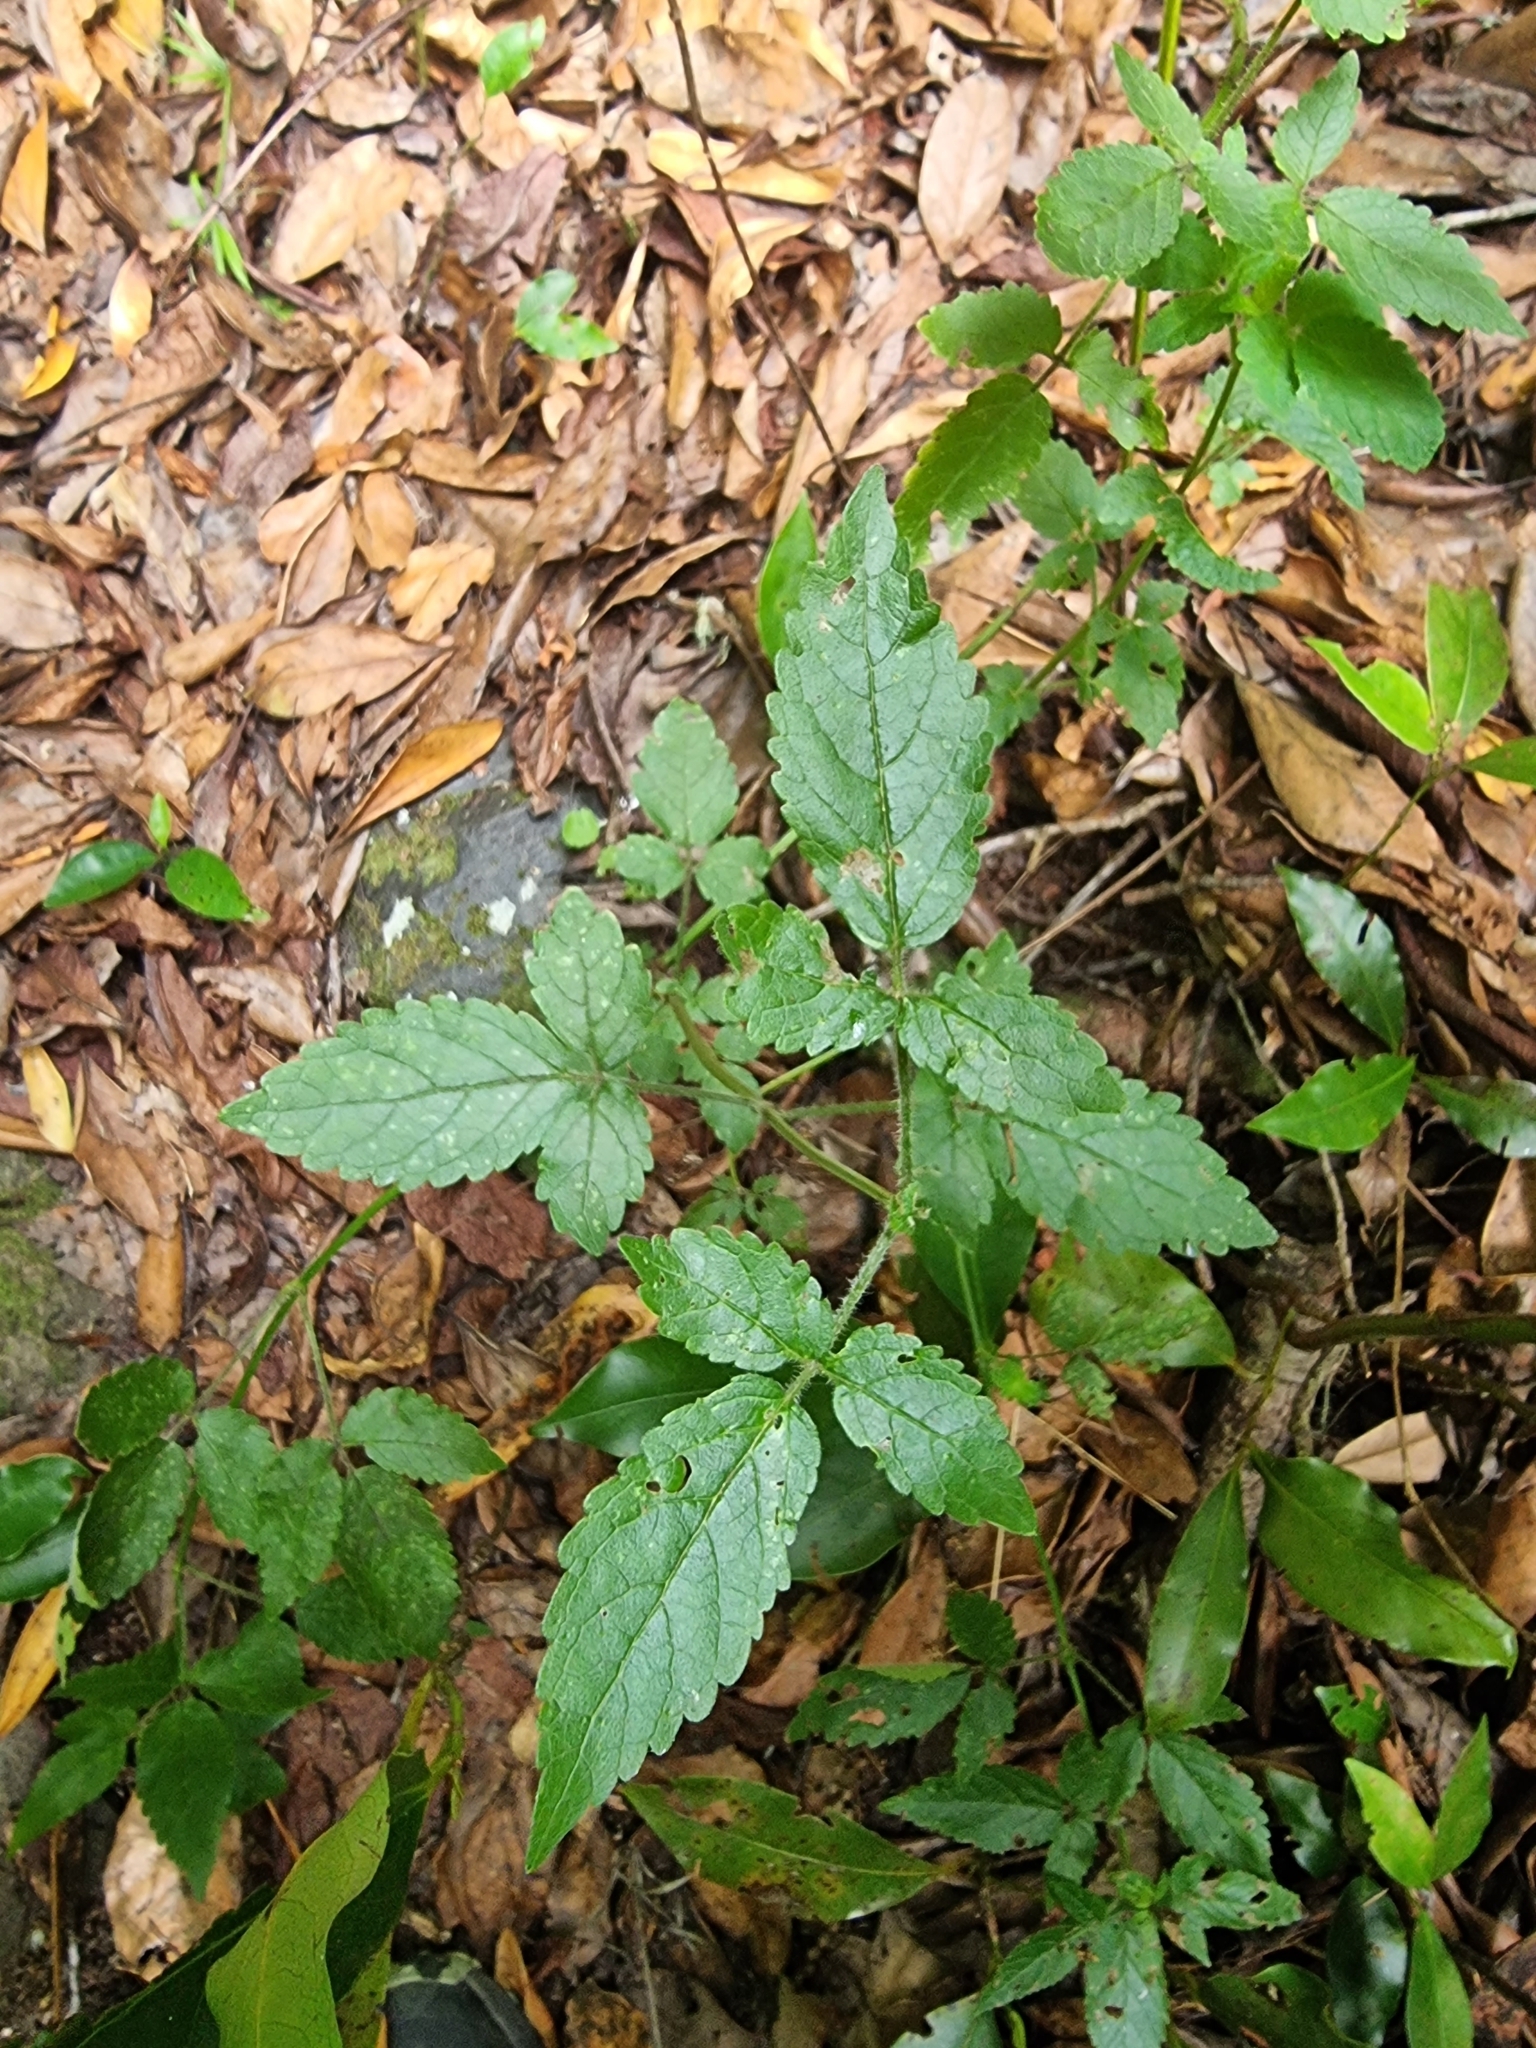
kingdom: Plantae
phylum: Tracheophyta
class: Magnoliopsida
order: Lamiales
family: Lamiaceae
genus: Cedronella
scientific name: Cedronella canariensis
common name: Canary islands balm
